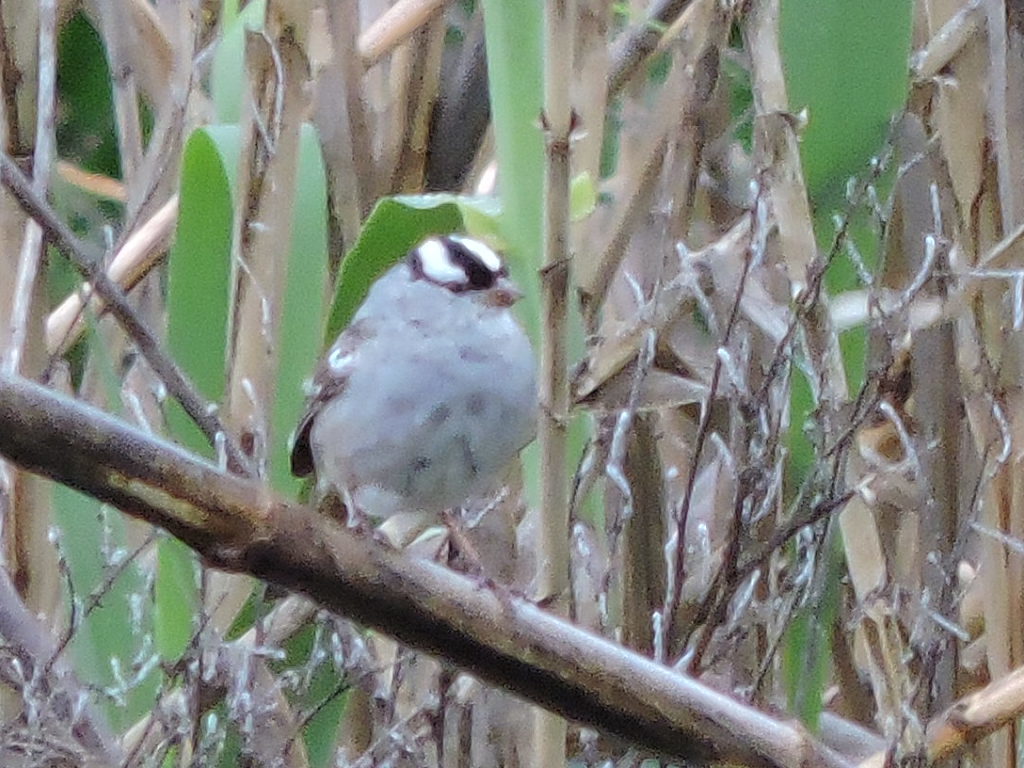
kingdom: Animalia
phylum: Chordata
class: Aves
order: Passeriformes
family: Passerellidae
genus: Zonotrichia
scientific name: Zonotrichia leucophrys
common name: White-crowned sparrow
